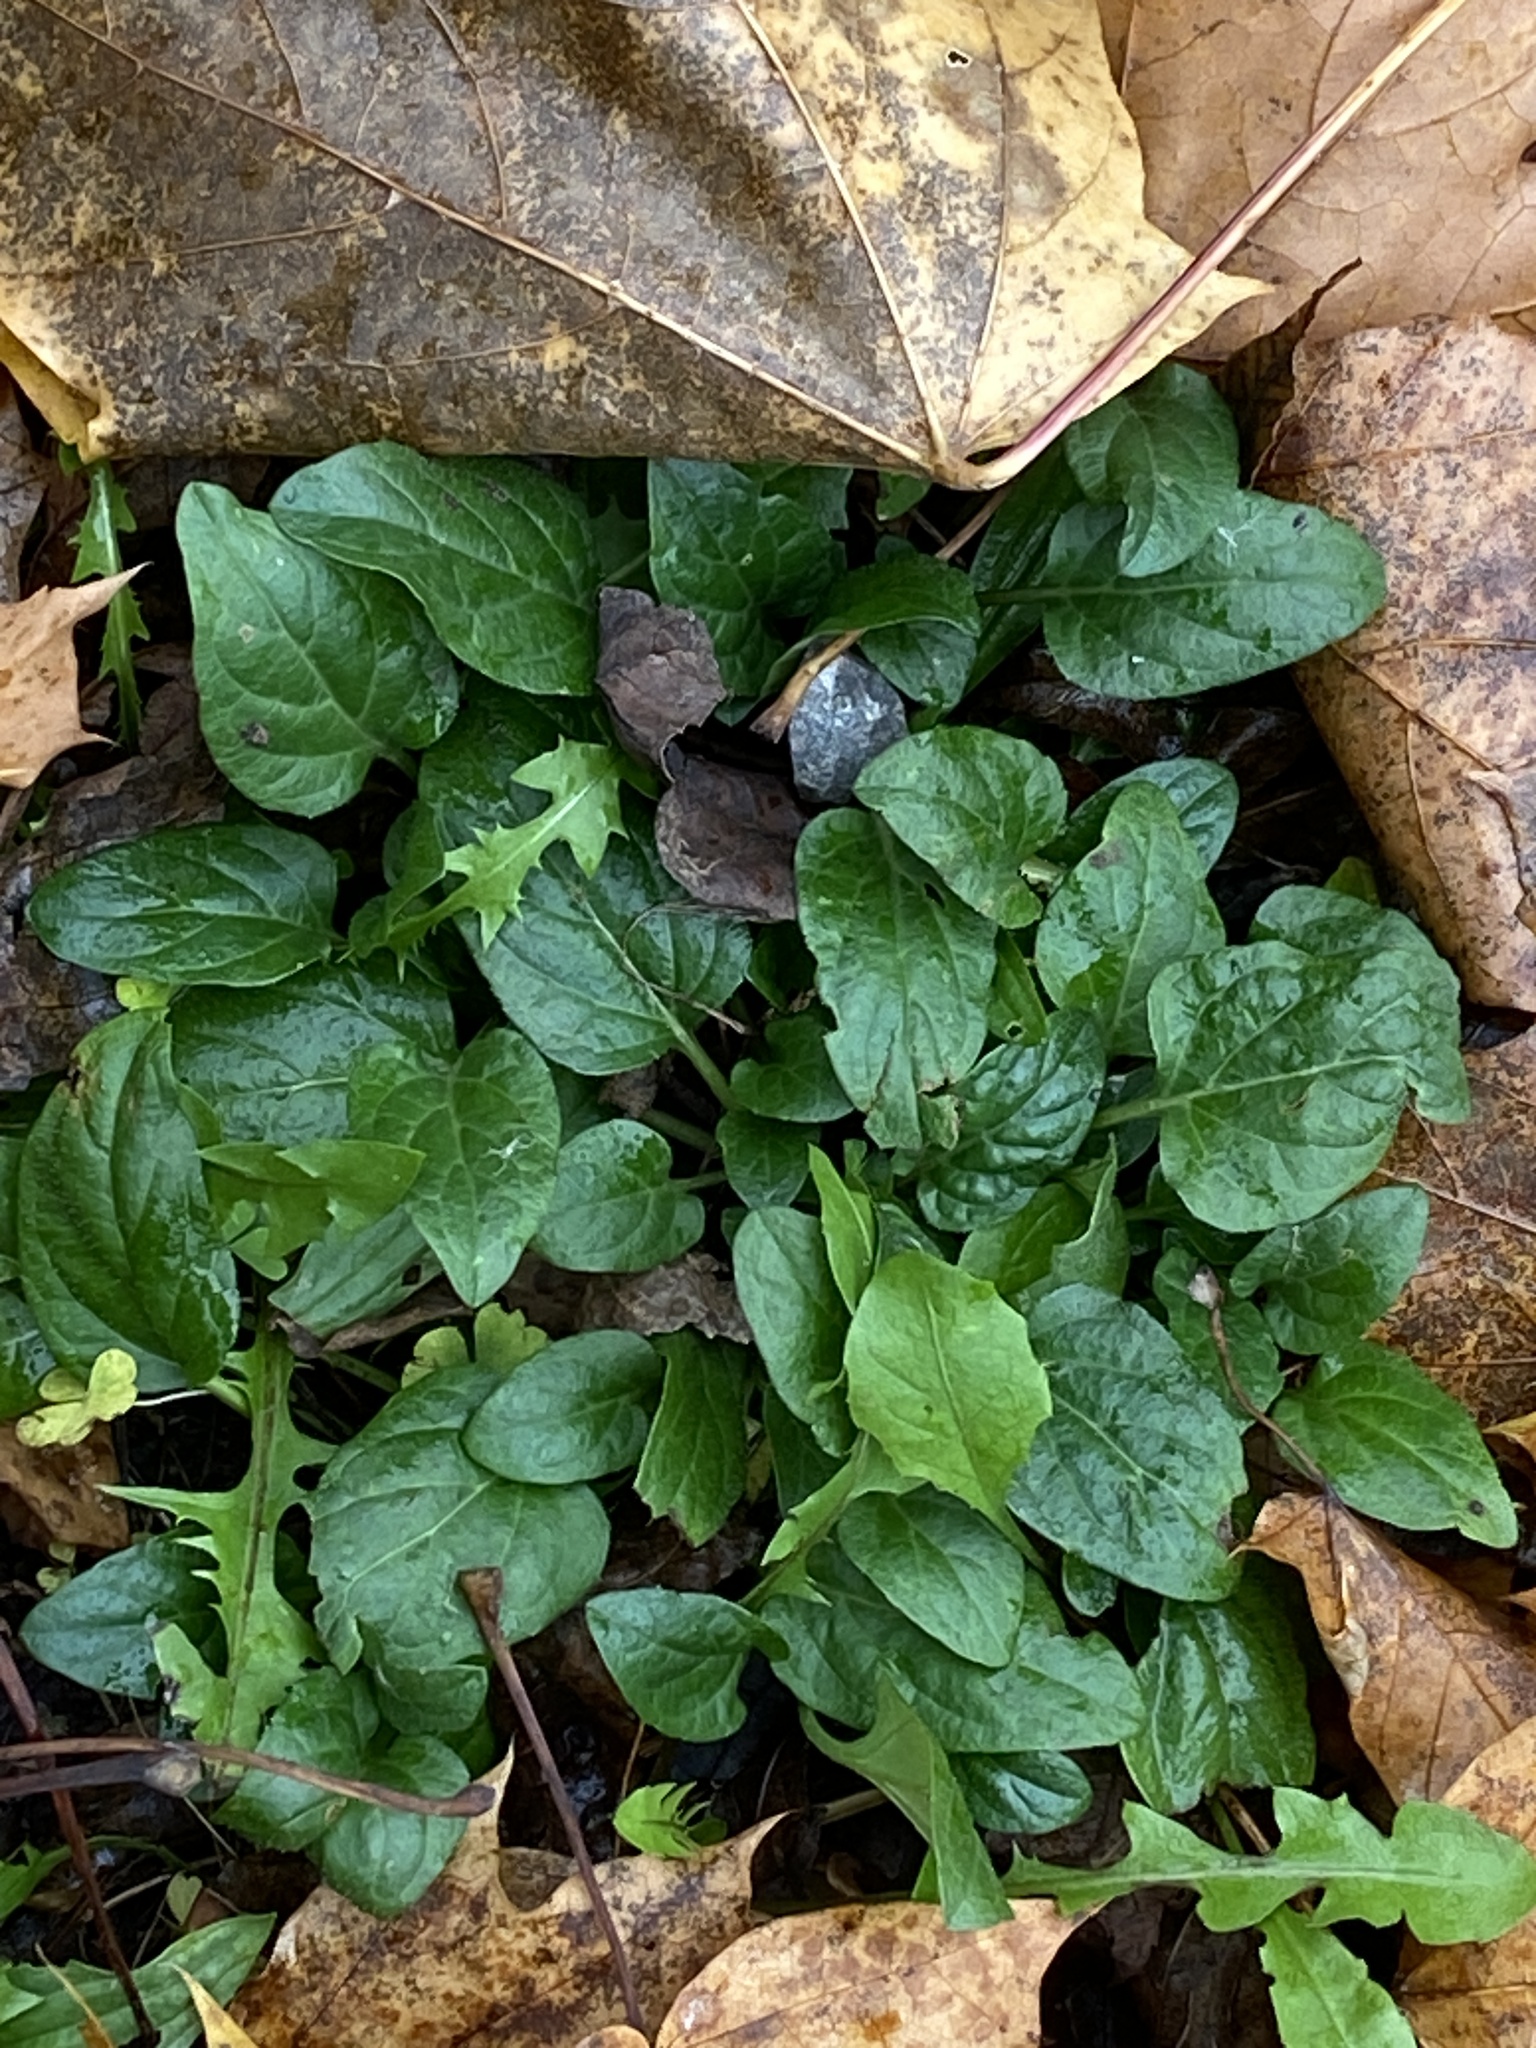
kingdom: Plantae
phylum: Tracheophyta
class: Magnoliopsida
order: Lamiales
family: Lamiaceae
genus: Prunella
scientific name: Prunella vulgaris
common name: Heal-all
